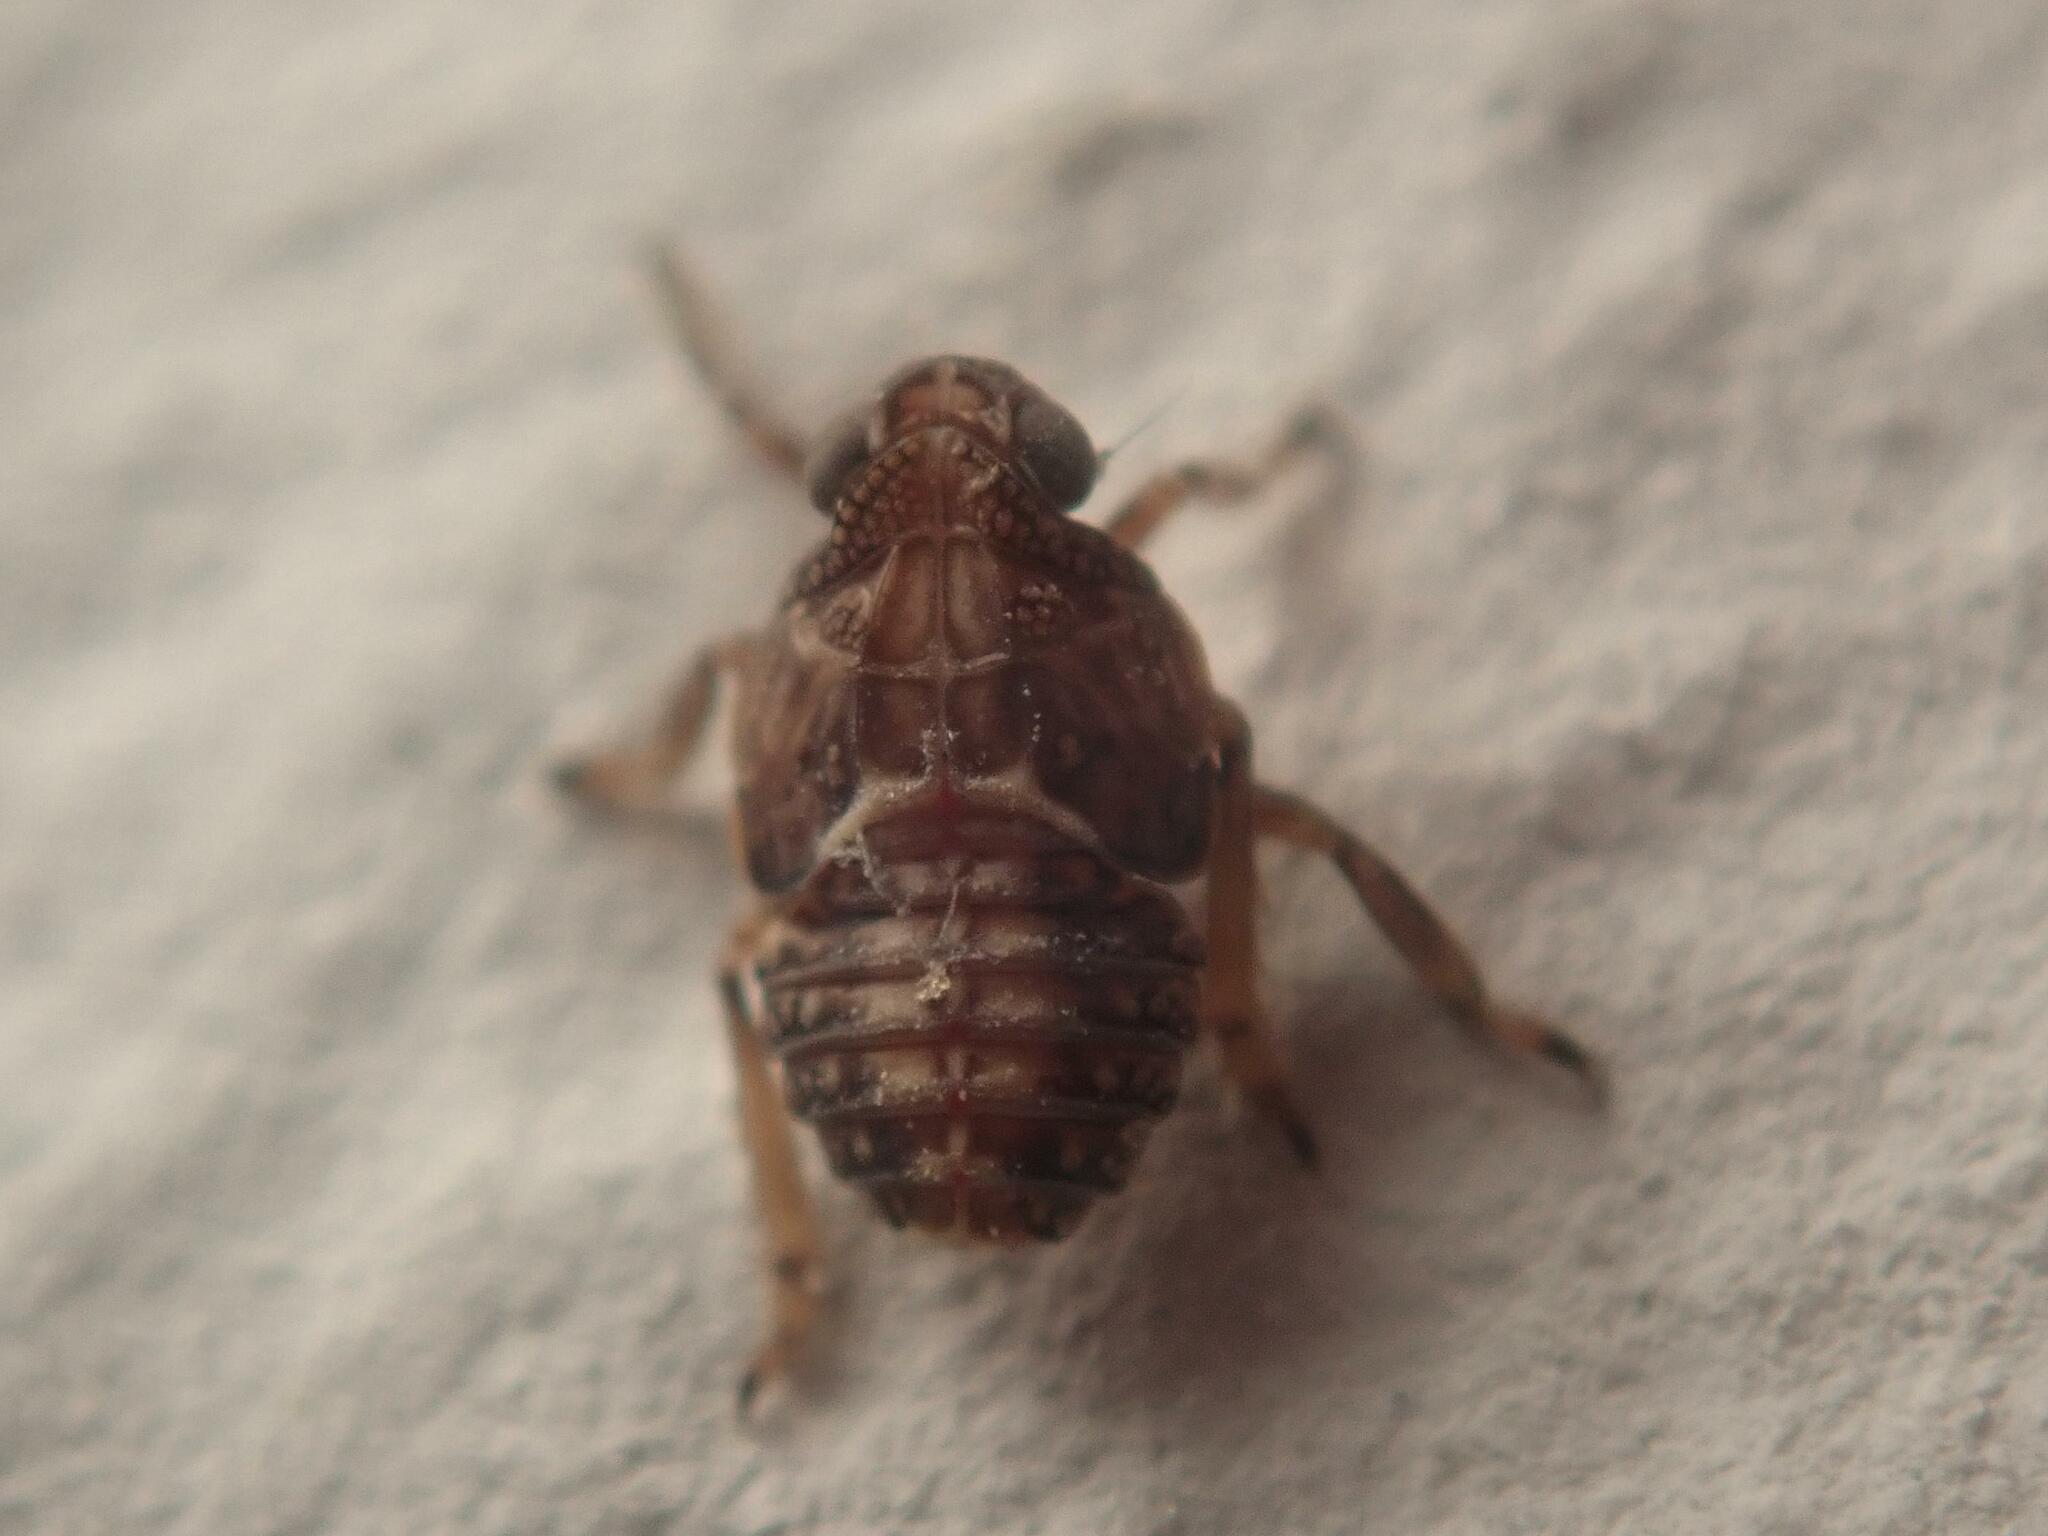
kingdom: Animalia
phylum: Arthropoda
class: Insecta
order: Hemiptera
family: Issidae
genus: Issus
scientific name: Issus coleoptratus
